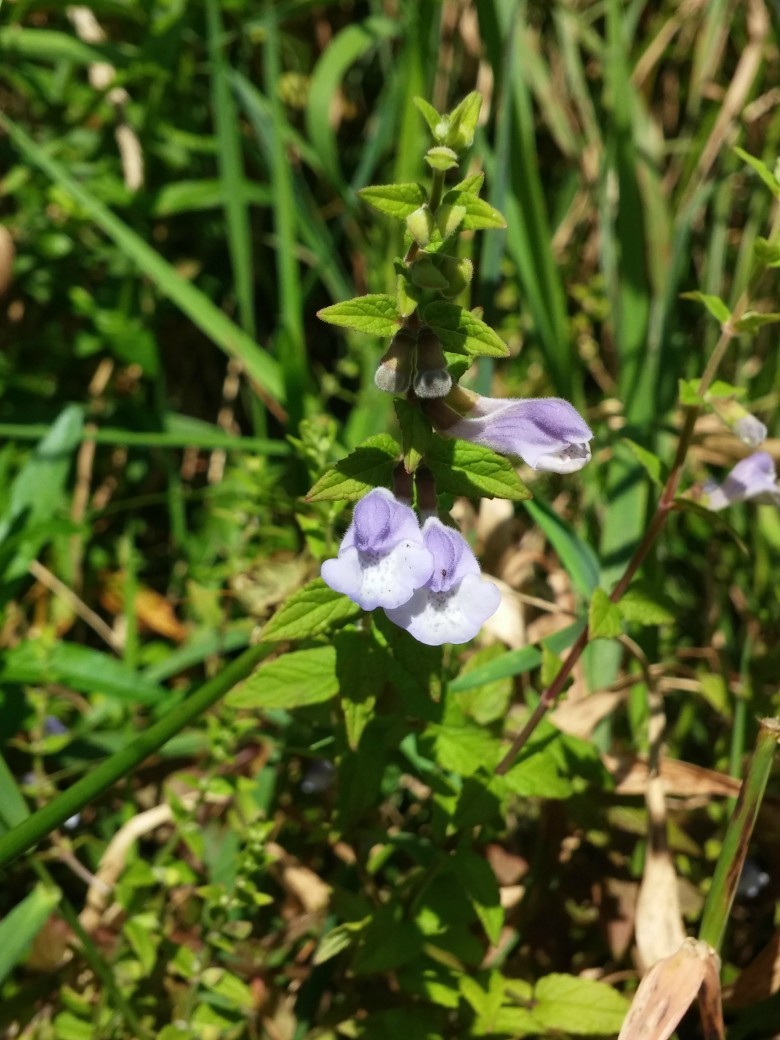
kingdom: Plantae
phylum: Tracheophyta
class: Magnoliopsida
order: Lamiales
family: Lamiaceae
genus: Scutellaria
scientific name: Scutellaria galericulata
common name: Skullcap
